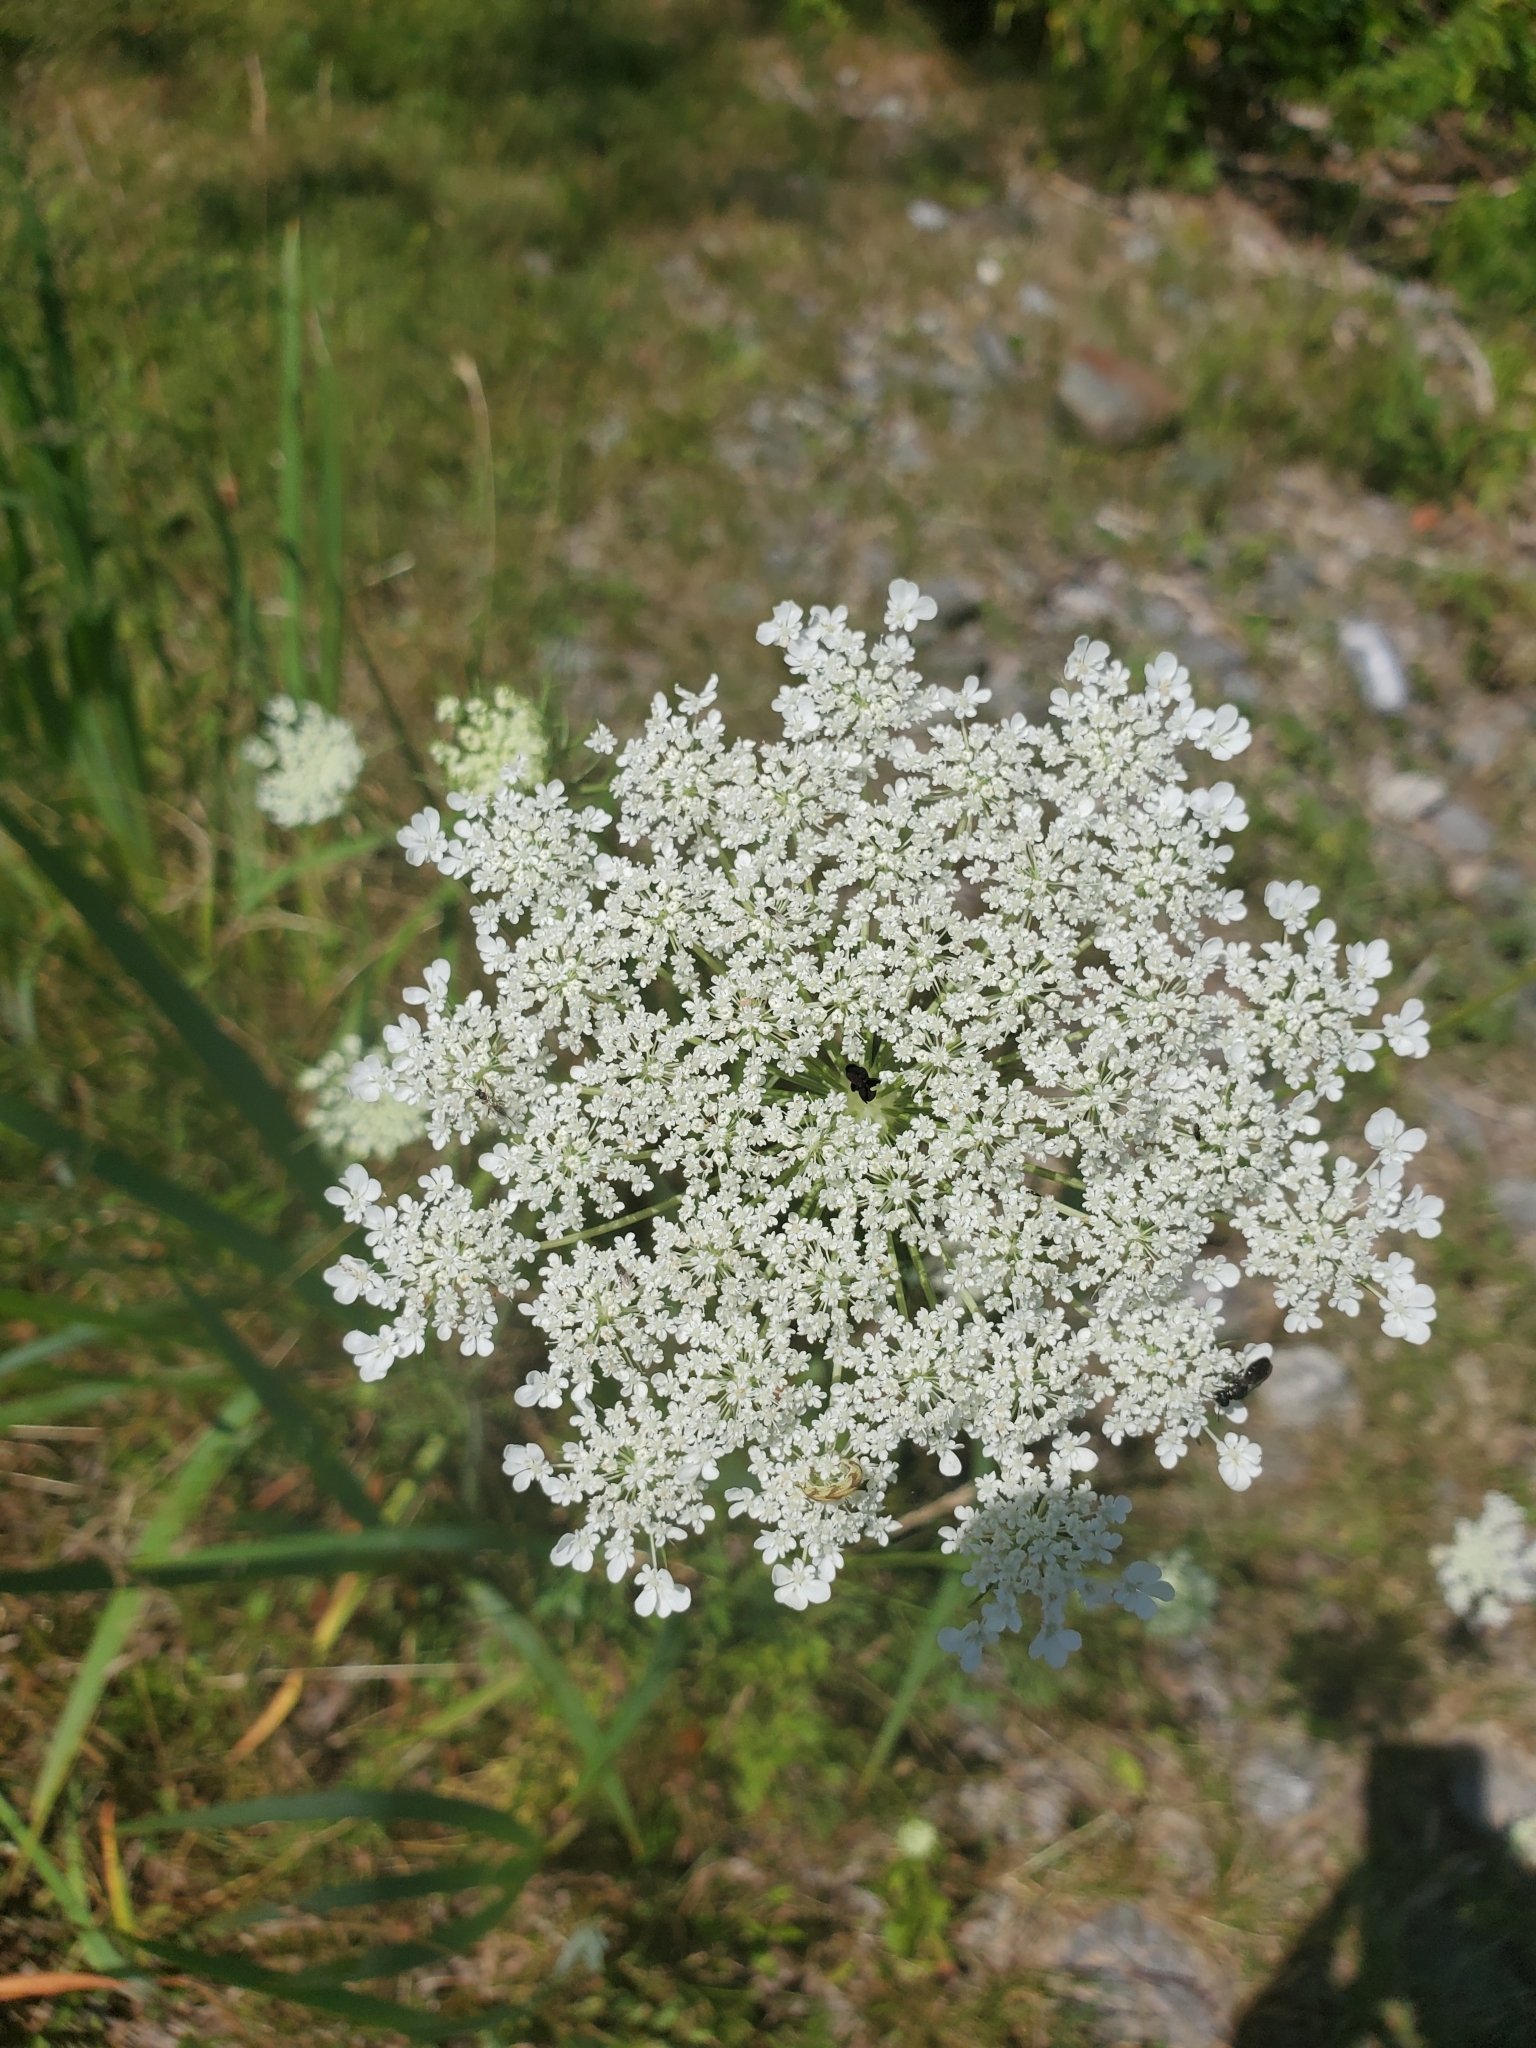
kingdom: Plantae
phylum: Tracheophyta
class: Magnoliopsida
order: Apiales
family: Apiaceae
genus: Daucus
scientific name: Daucus carota
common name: Wild carrot
